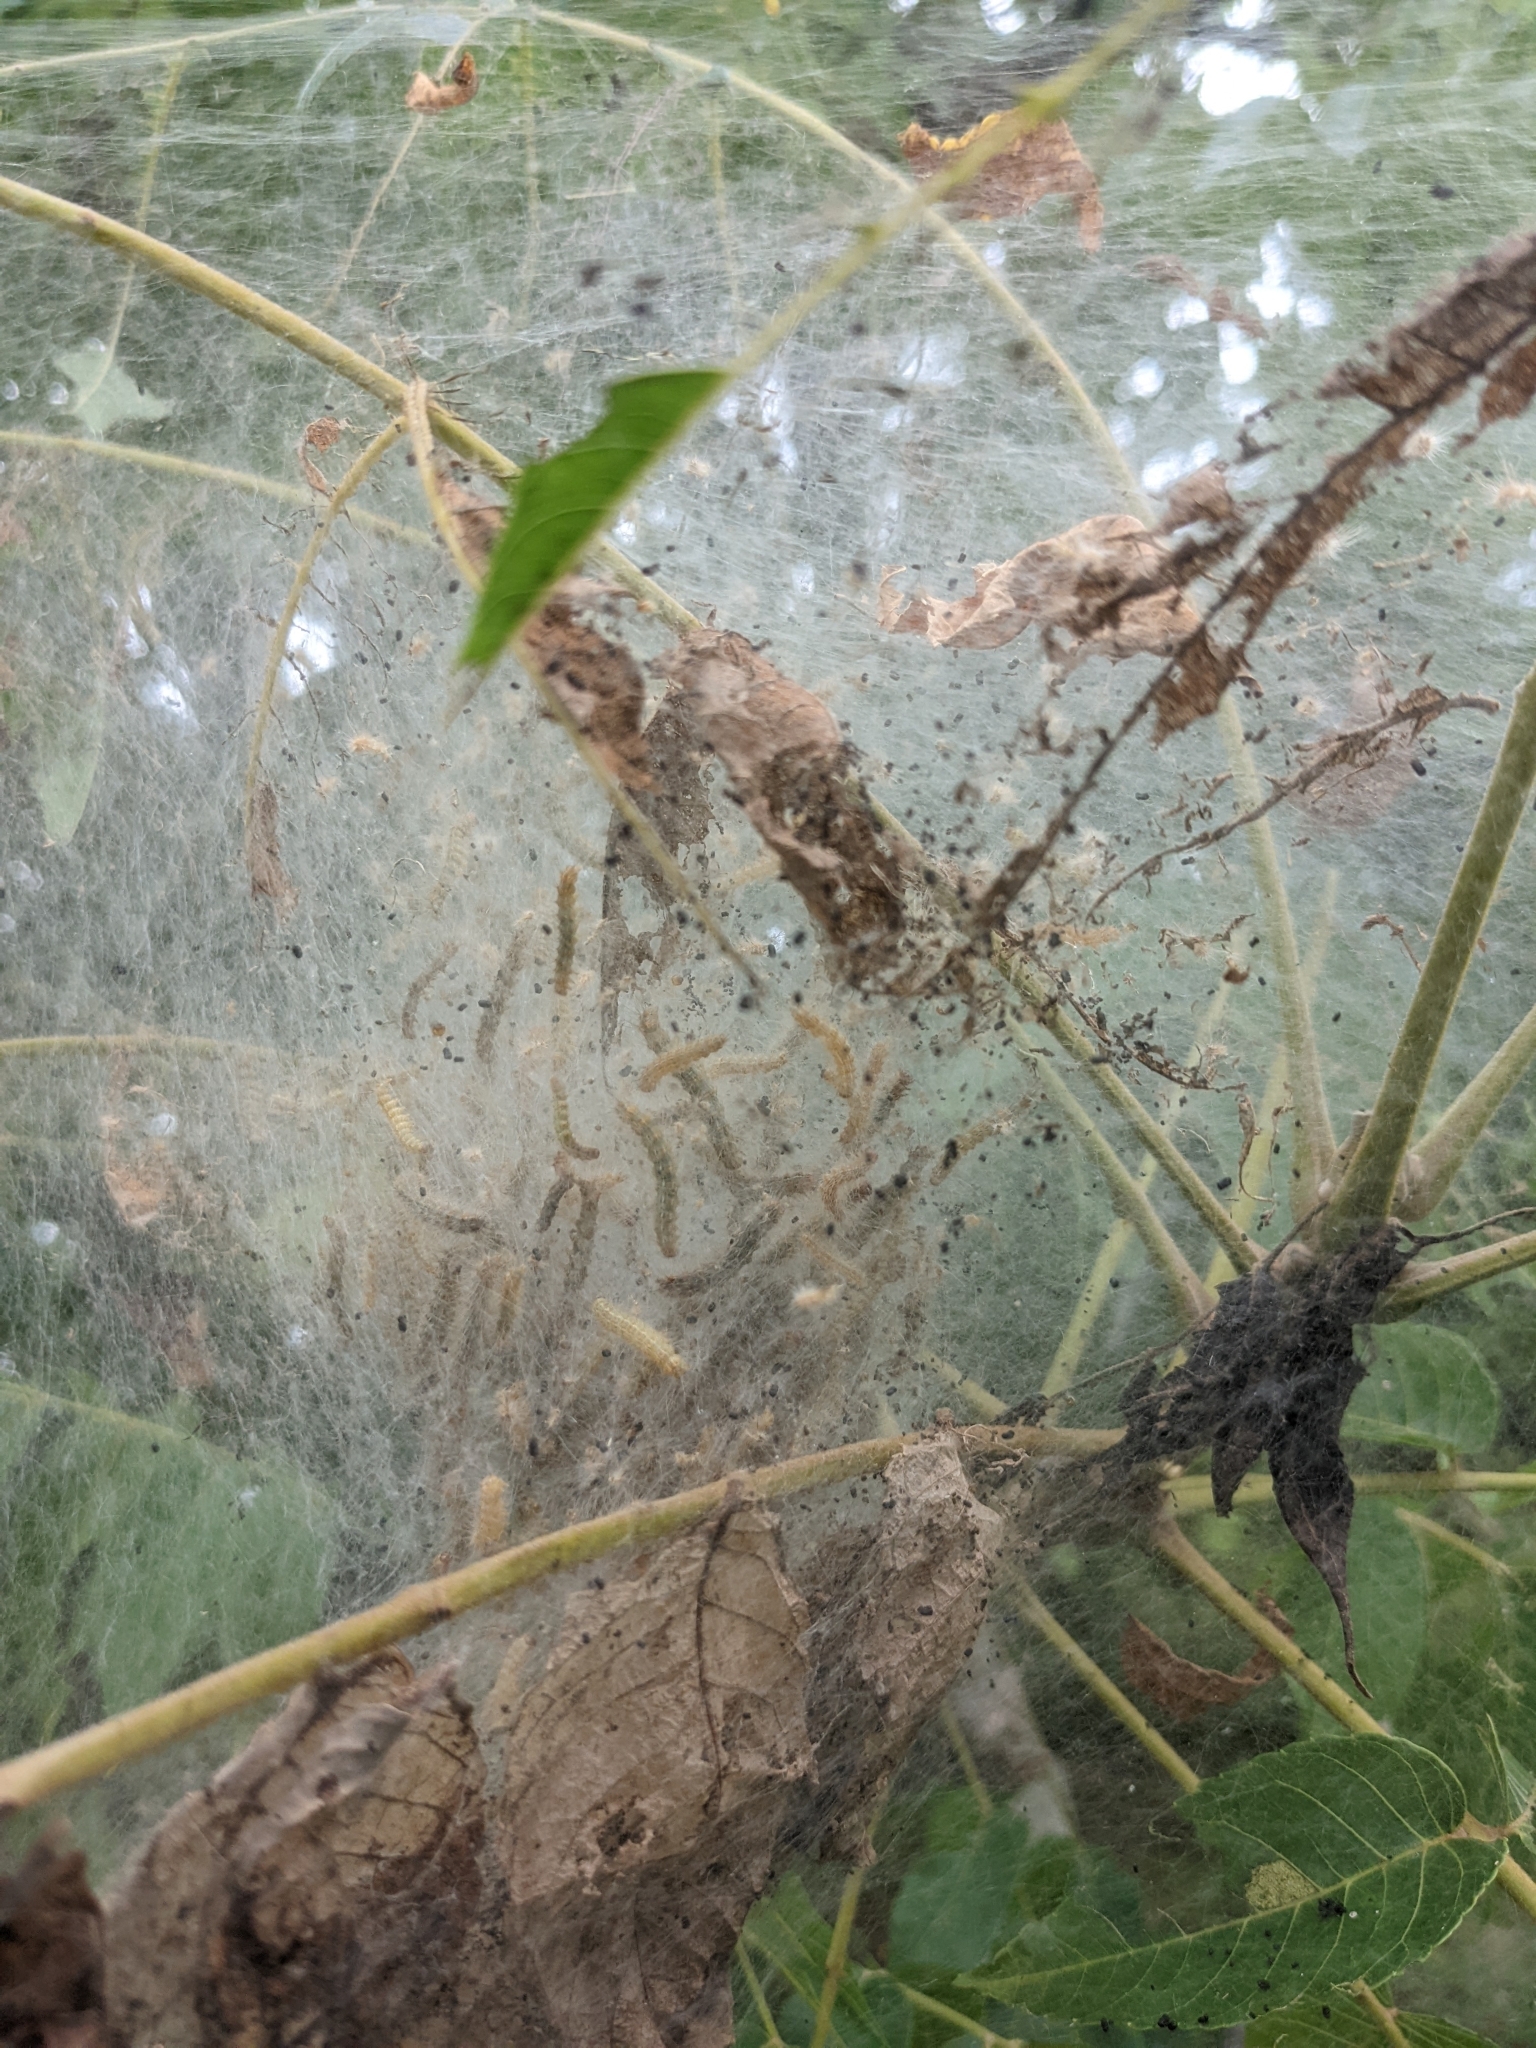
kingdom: Animalia
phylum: Arthropoda
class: Insecta
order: Lepidoptera
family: Erebidae
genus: Hyphantria
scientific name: Hyphantria cunea
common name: American white moth
